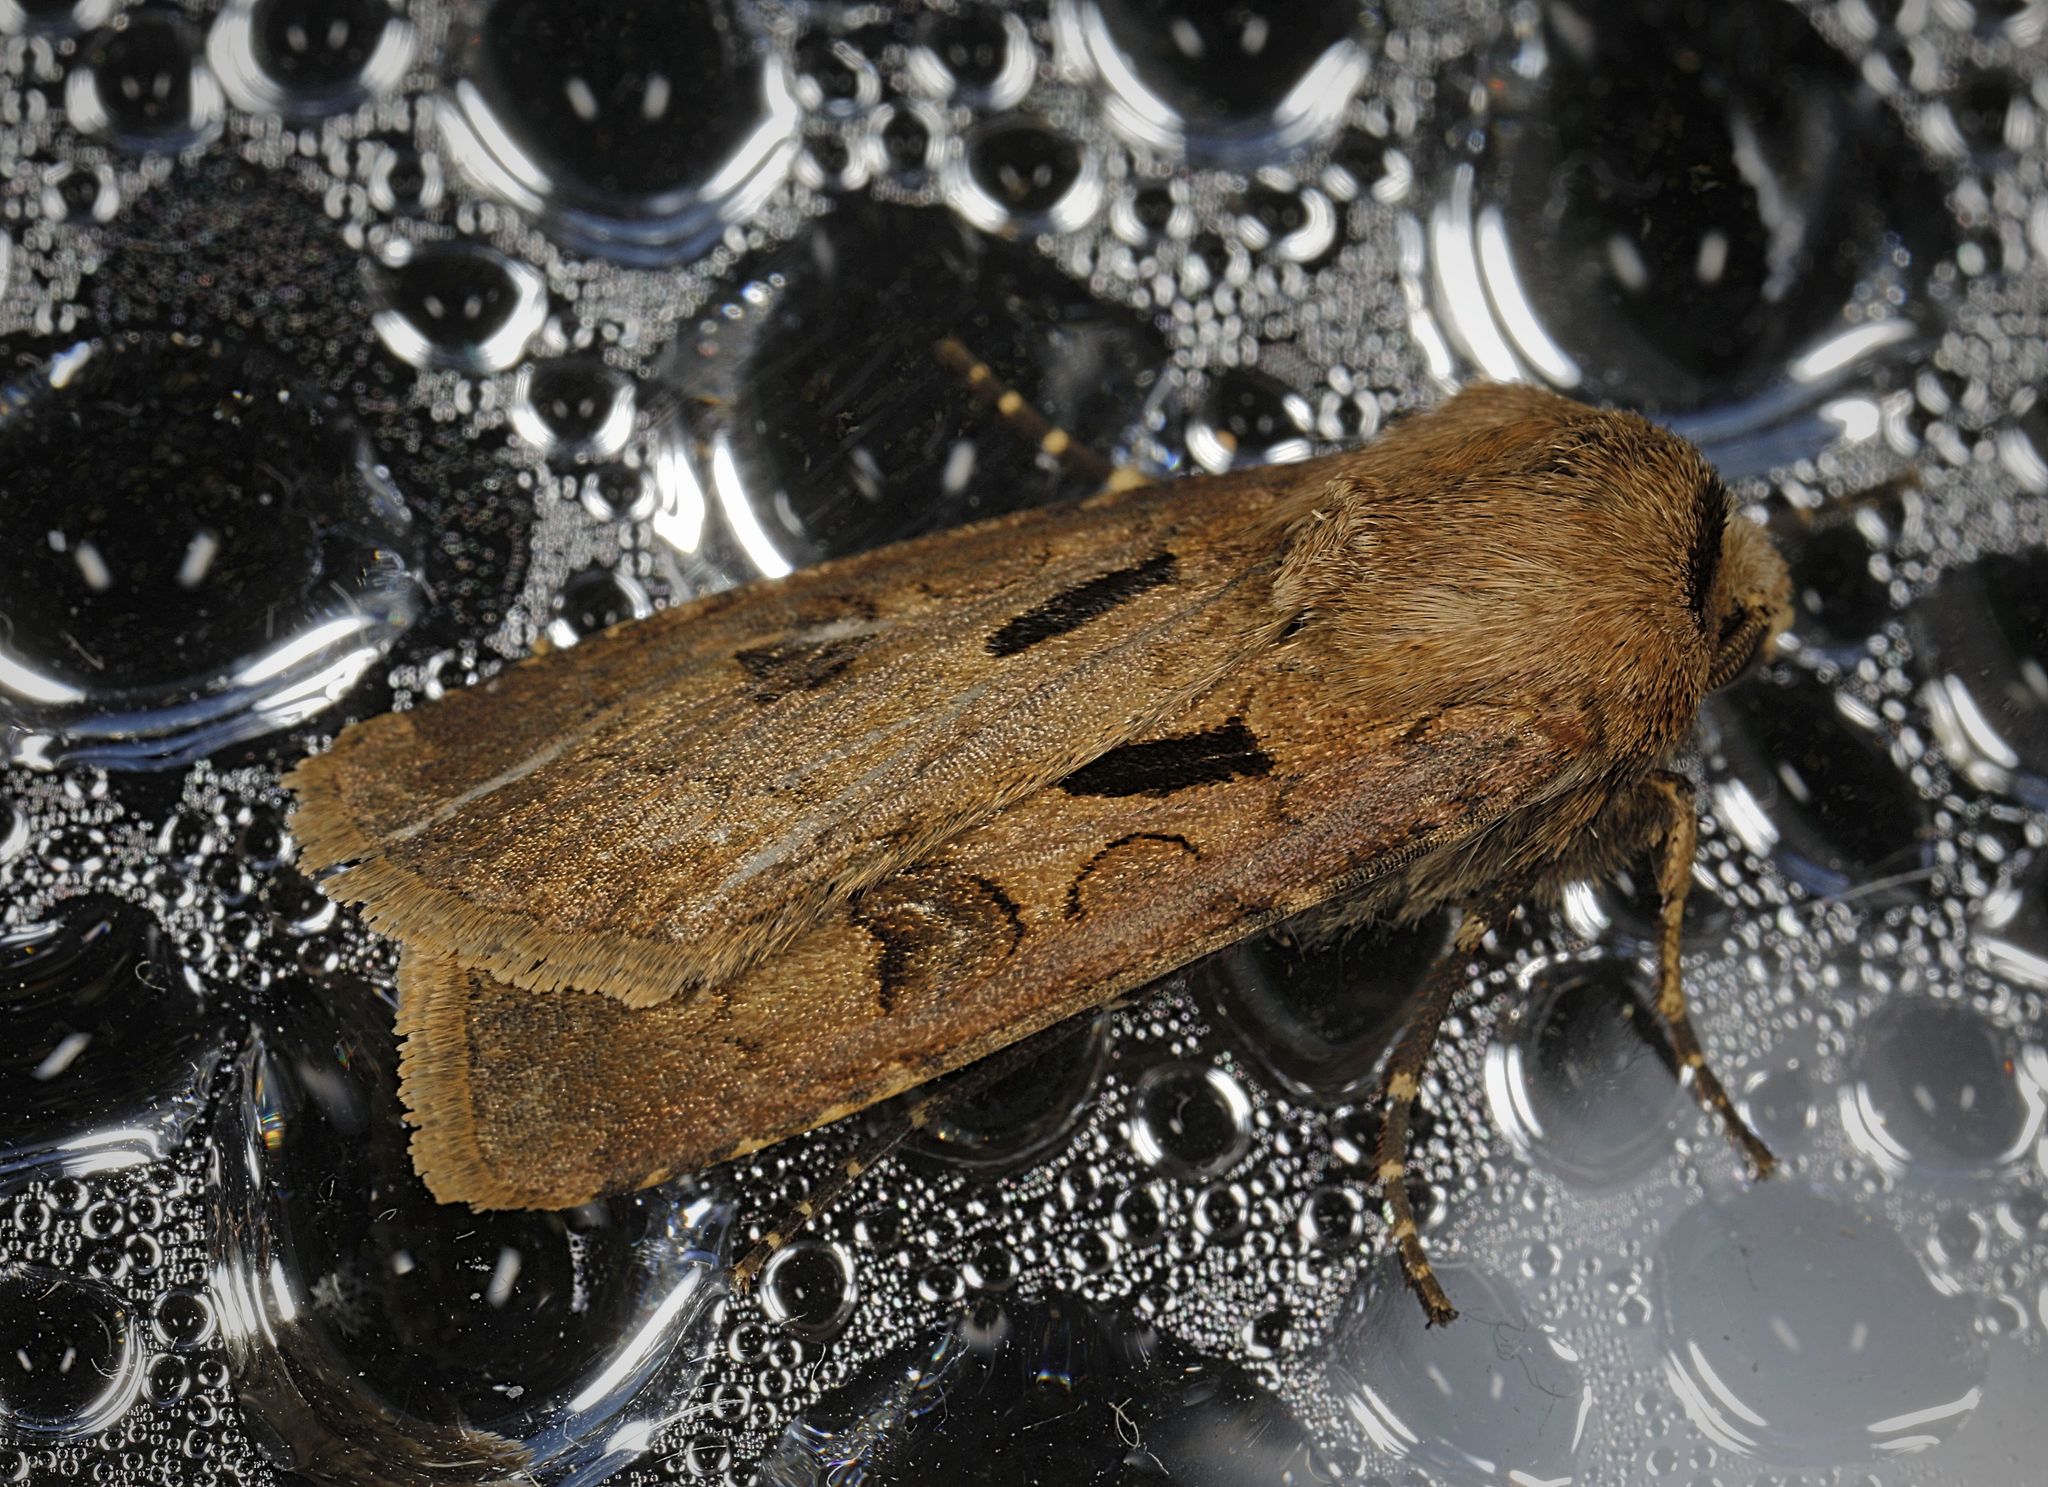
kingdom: Animalia
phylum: Arthropoda
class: Insecta
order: Lepidoptera
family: Noctuidae
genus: Agrotis
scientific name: Agrotis exclamationis
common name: Heart and dart
